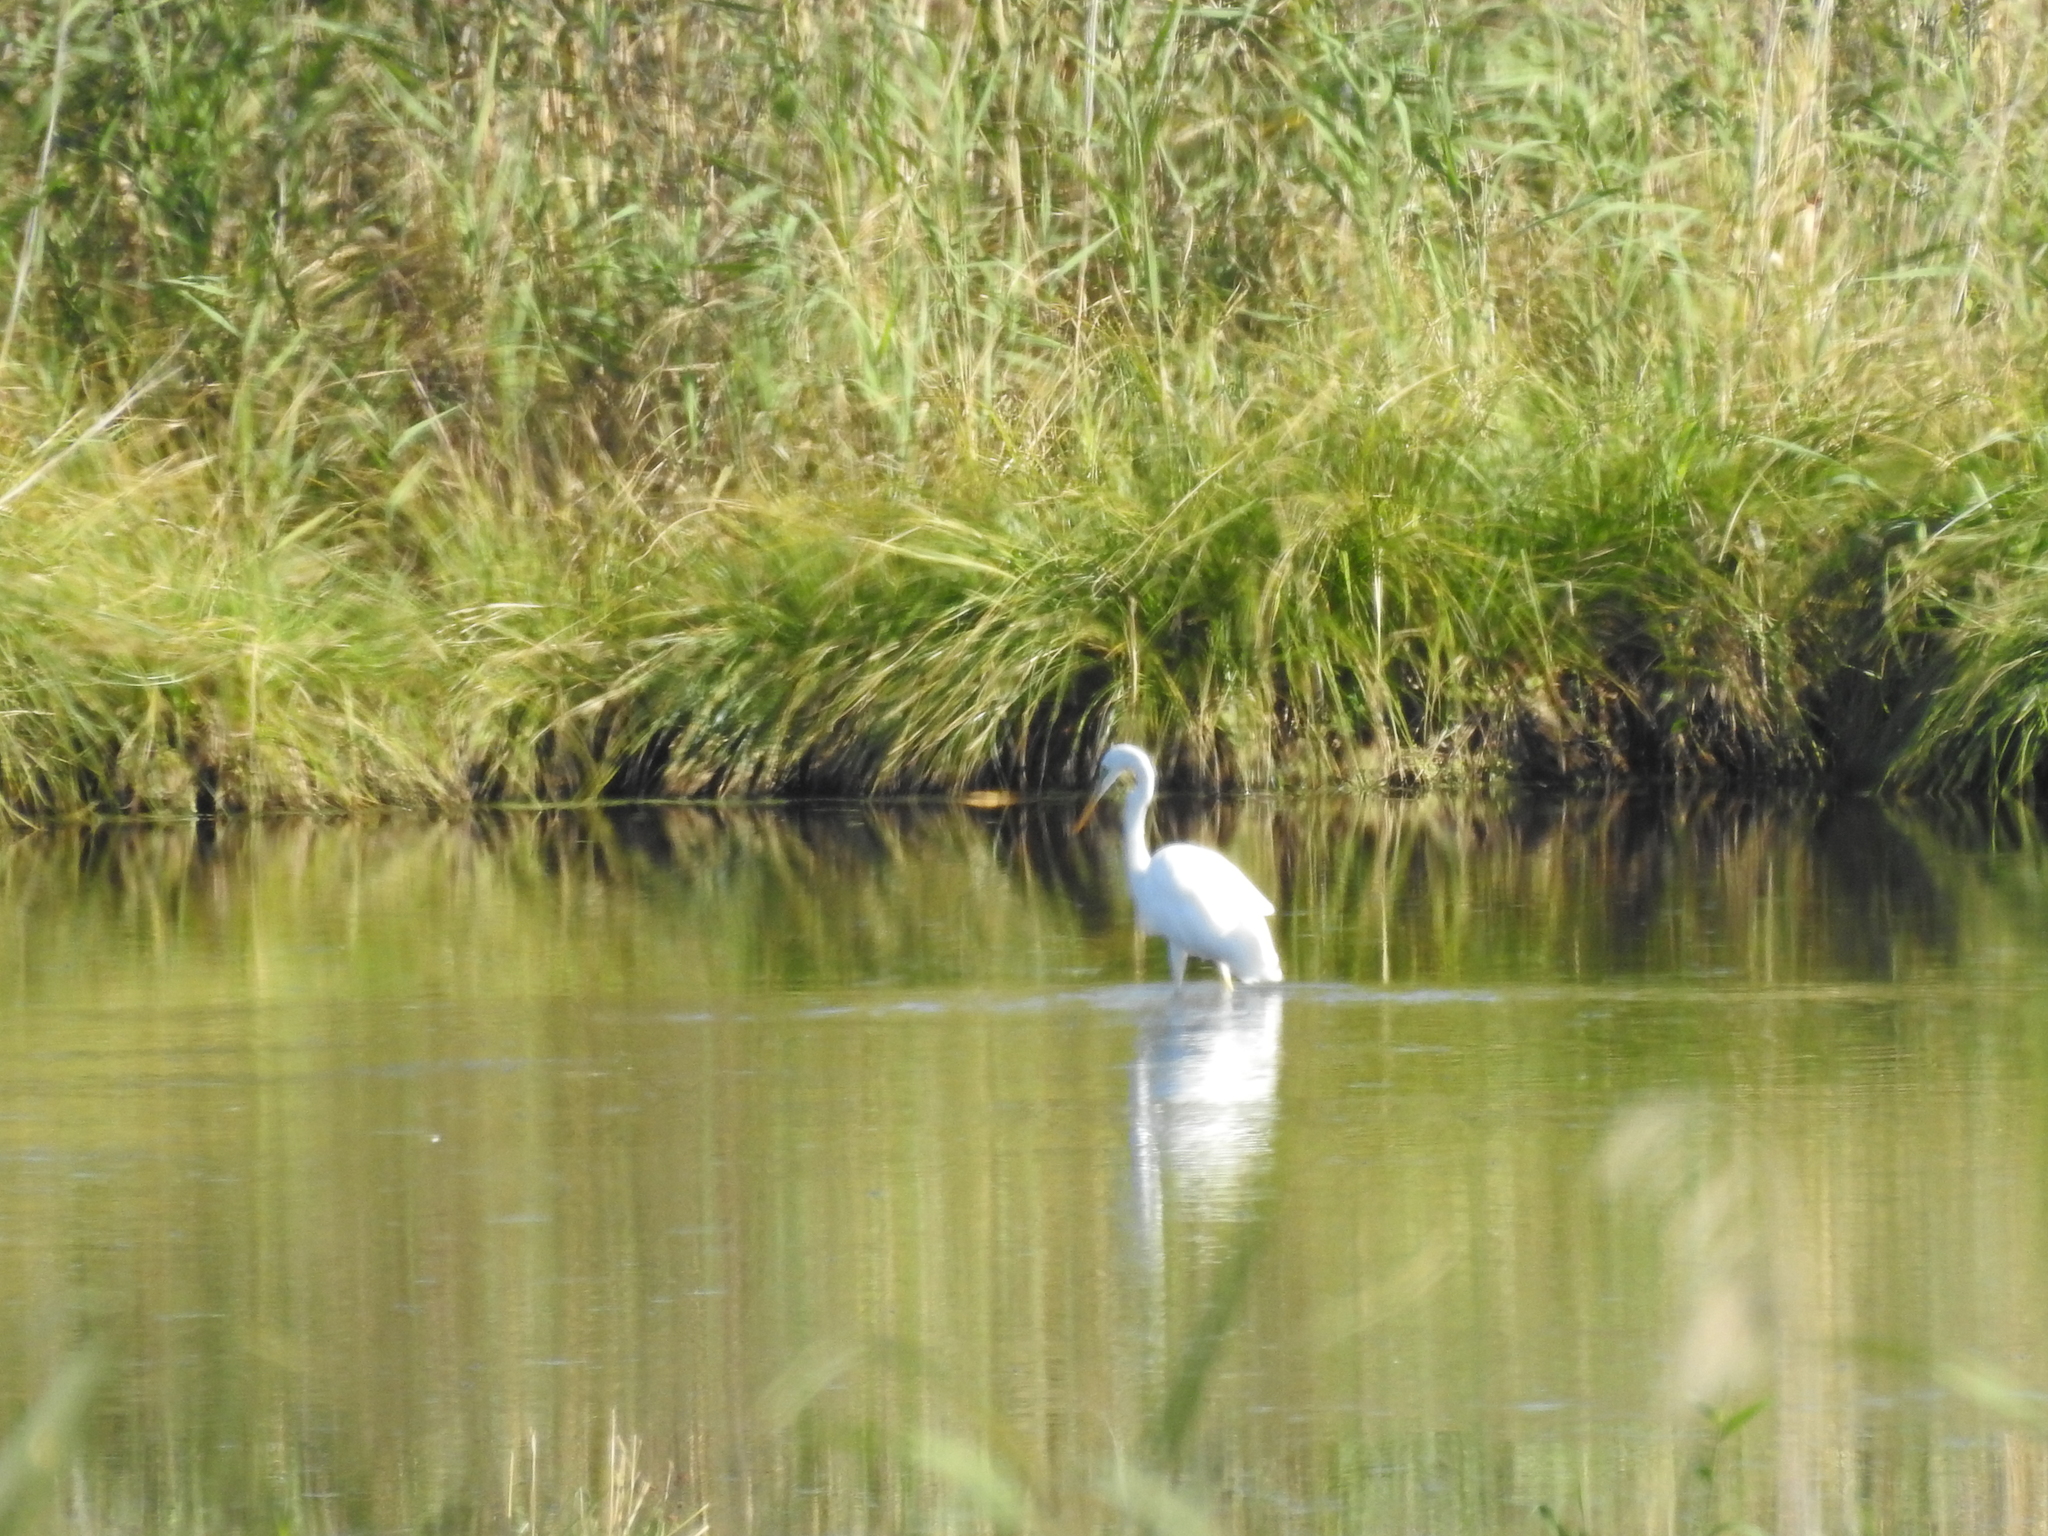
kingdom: Animalia
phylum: Chordata
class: Aves
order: Pelecaniformes
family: Ardeidae
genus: Ardea
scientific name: Ardea alba
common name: Great egret
